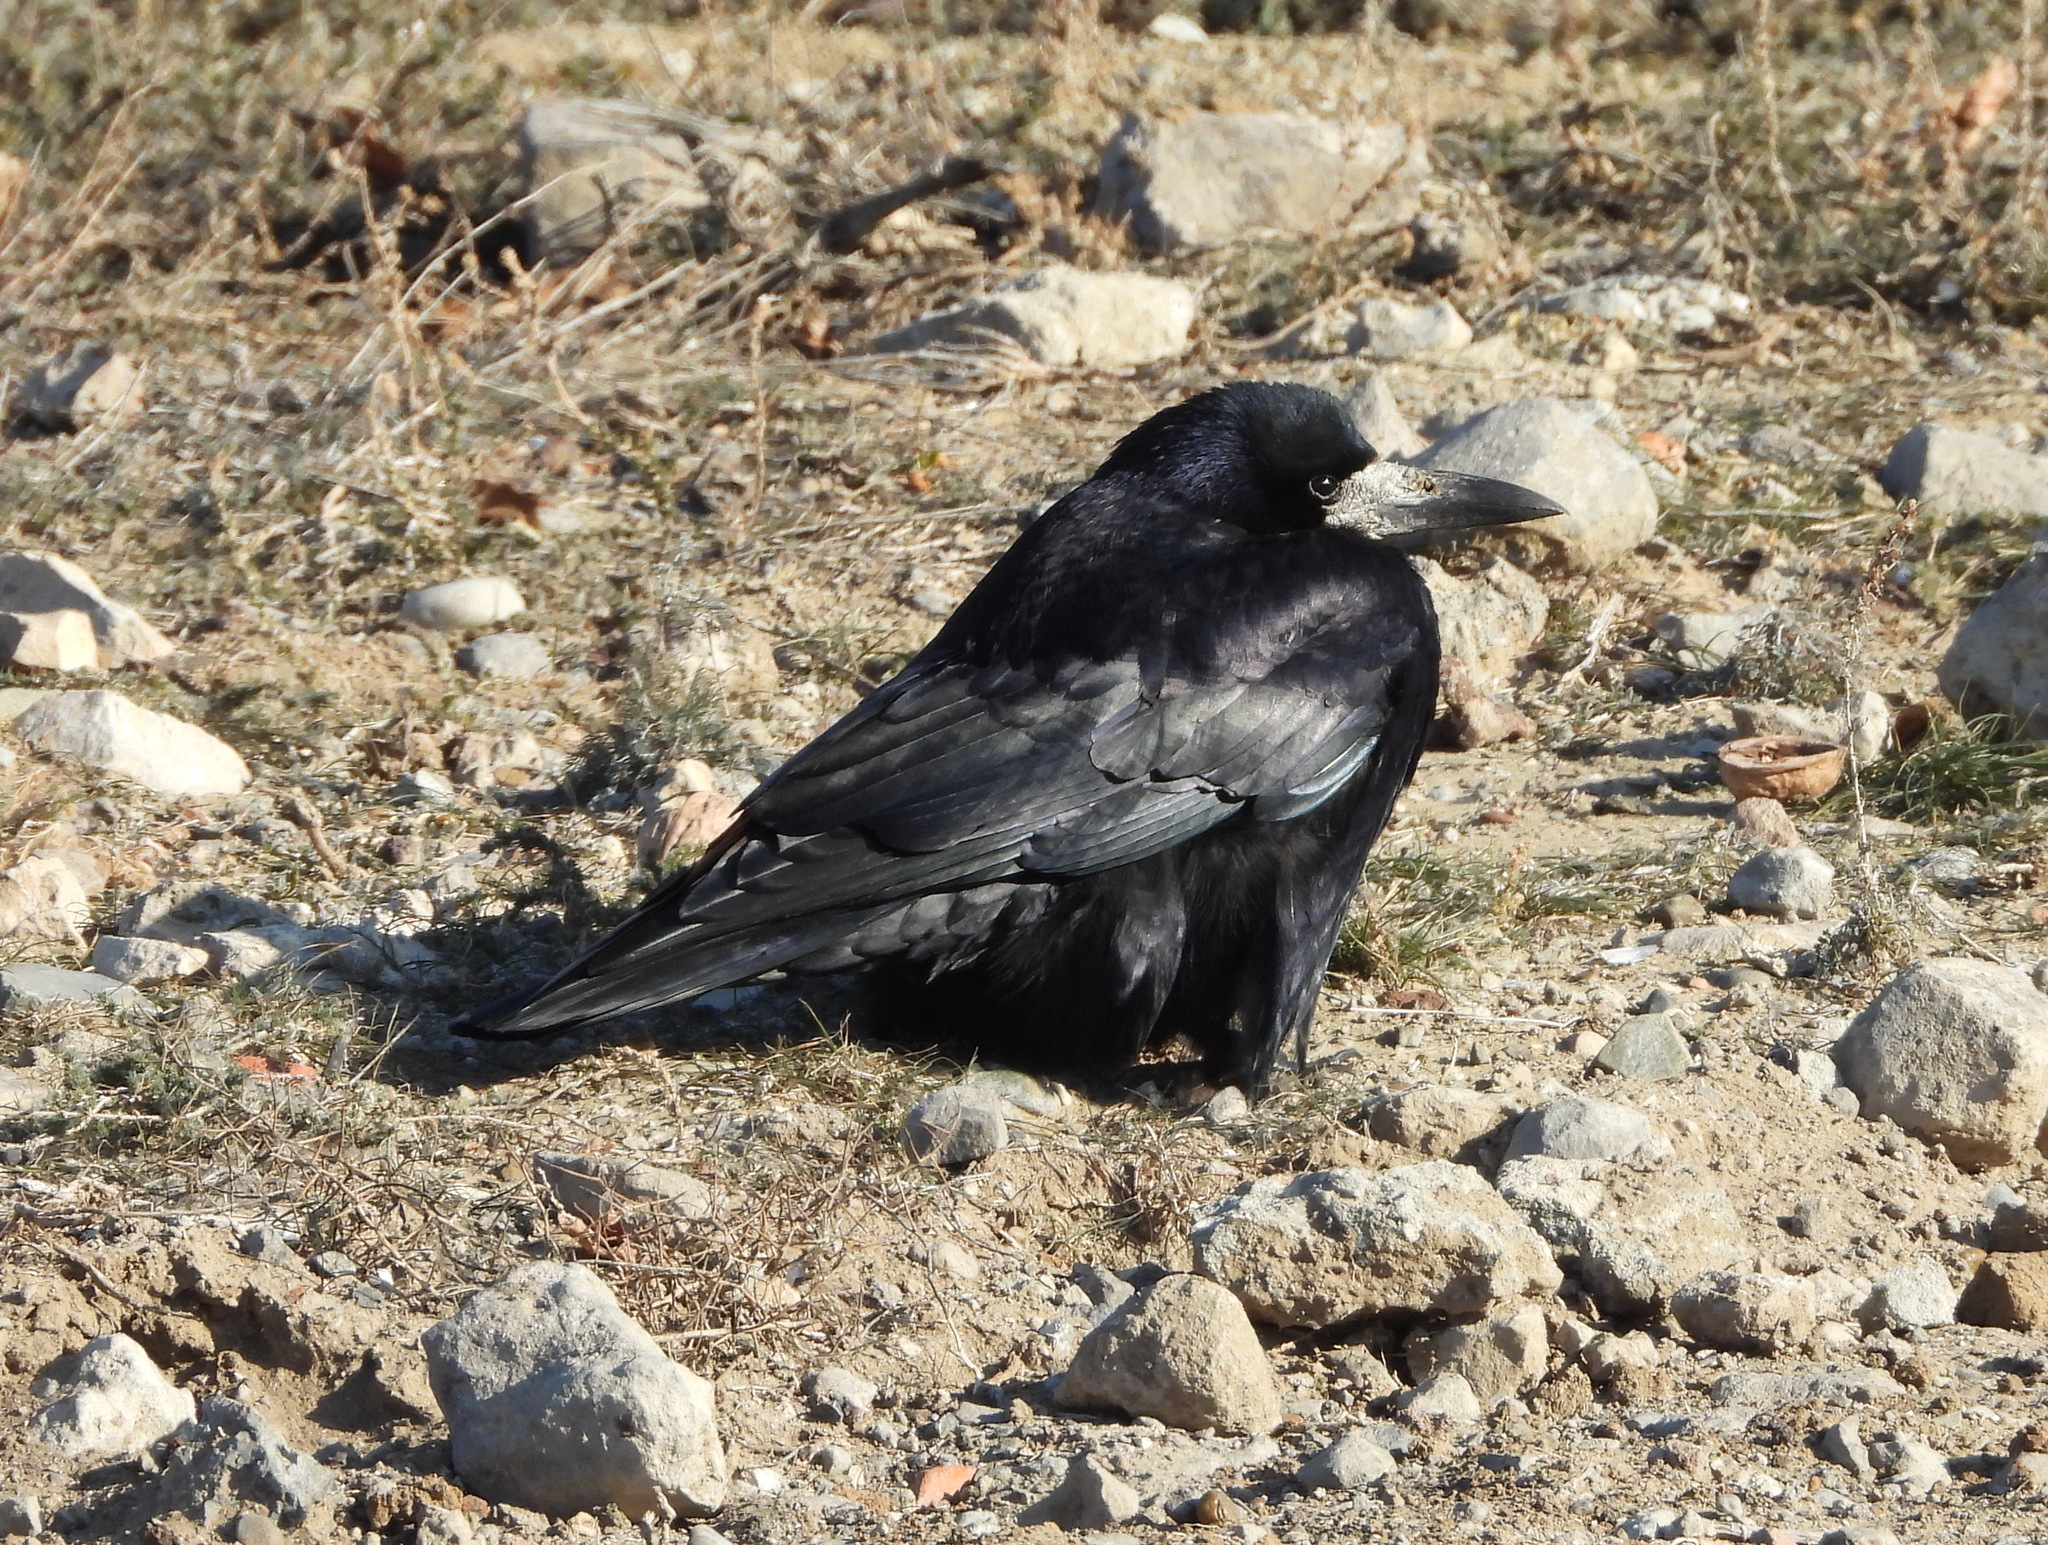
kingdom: Animalia
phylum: Chordata
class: Aves
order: Passeriformes
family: Corvidae
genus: Corvus
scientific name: Corvus frugilegus
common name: Rook
